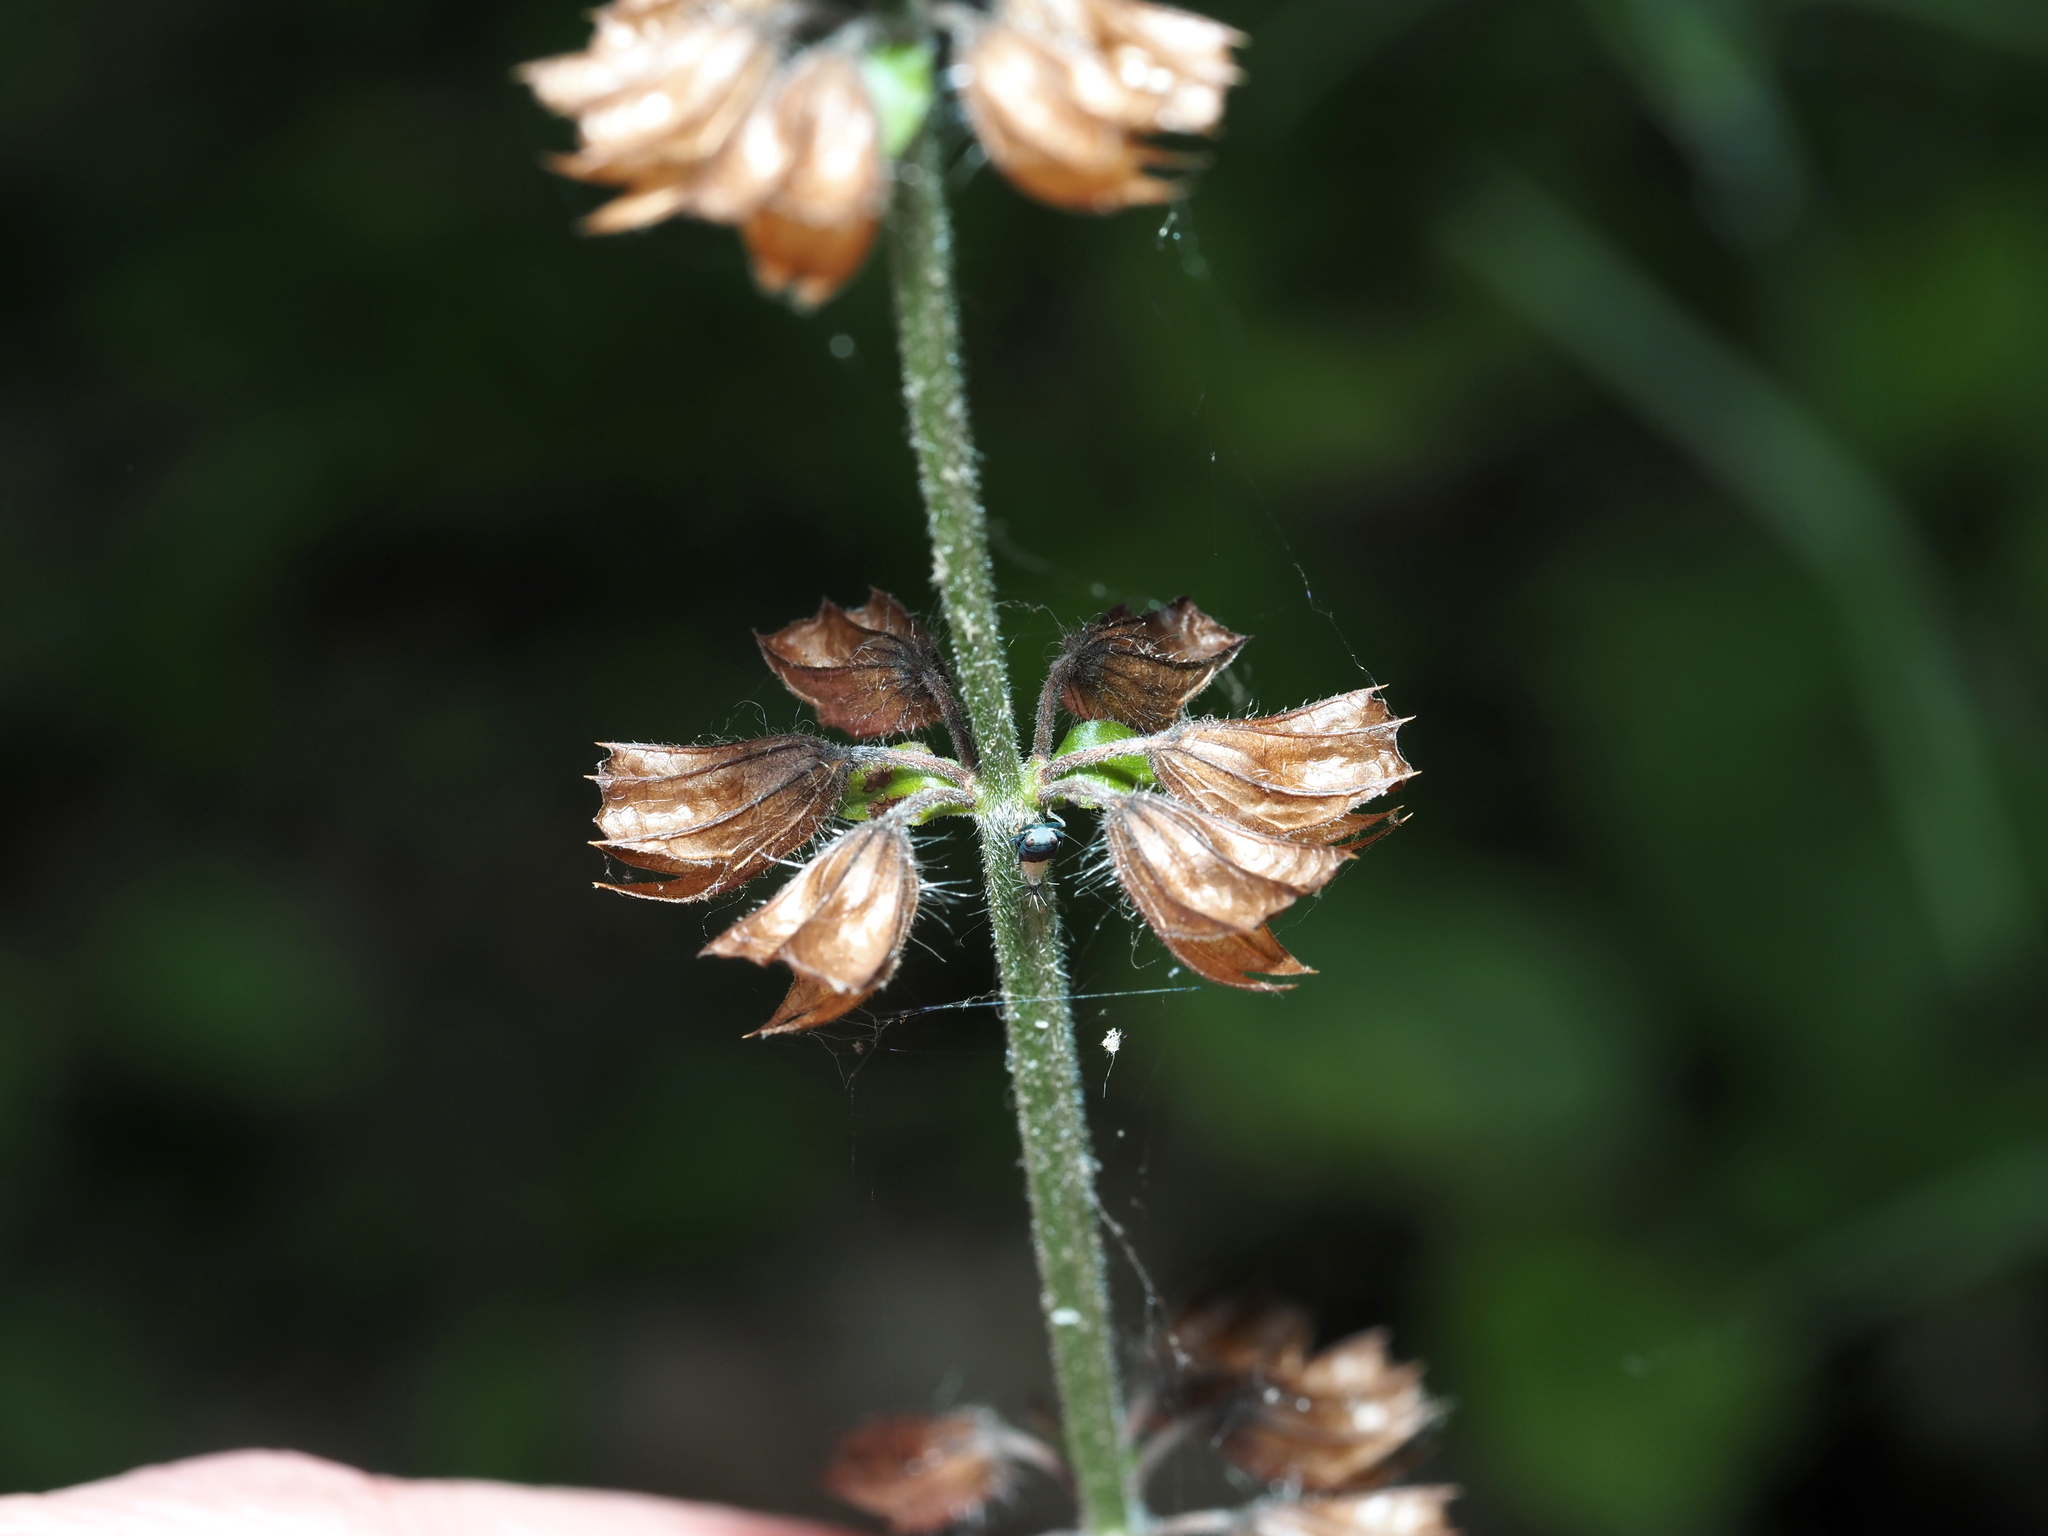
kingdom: Plantae
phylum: Tracheophyta
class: Magnoliopsida
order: Lamiales
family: Lamiaceae
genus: Salvia
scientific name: Salvia lyrata
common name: Cancerweed
